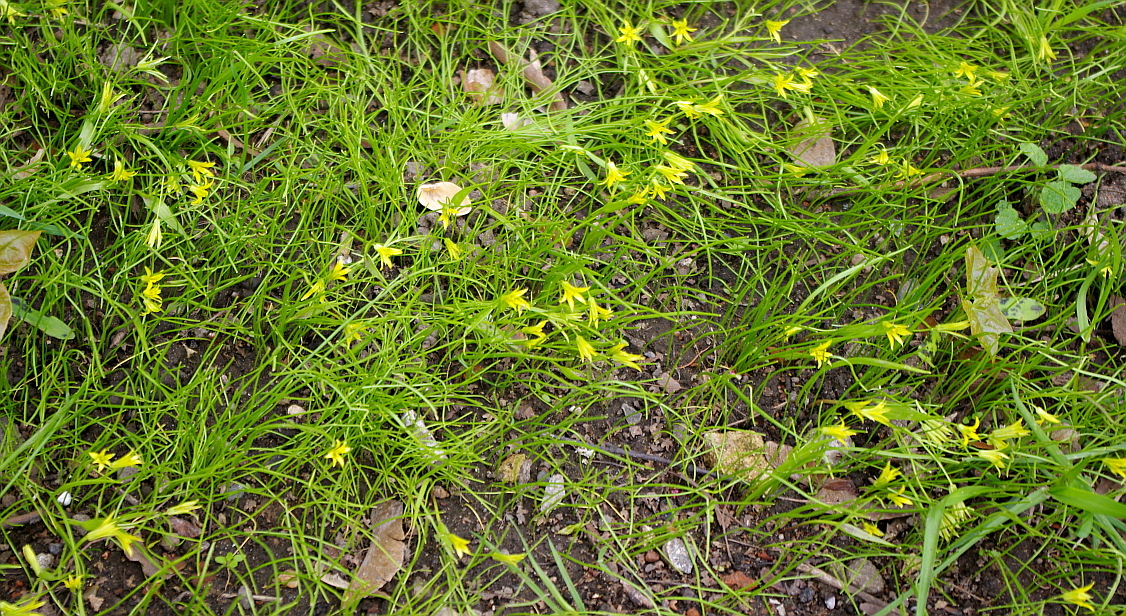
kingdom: Plantae
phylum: Tracheophyta
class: Liliopsida
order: Liliales
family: Liliaceae
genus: Gagea
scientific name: Gagea minima
